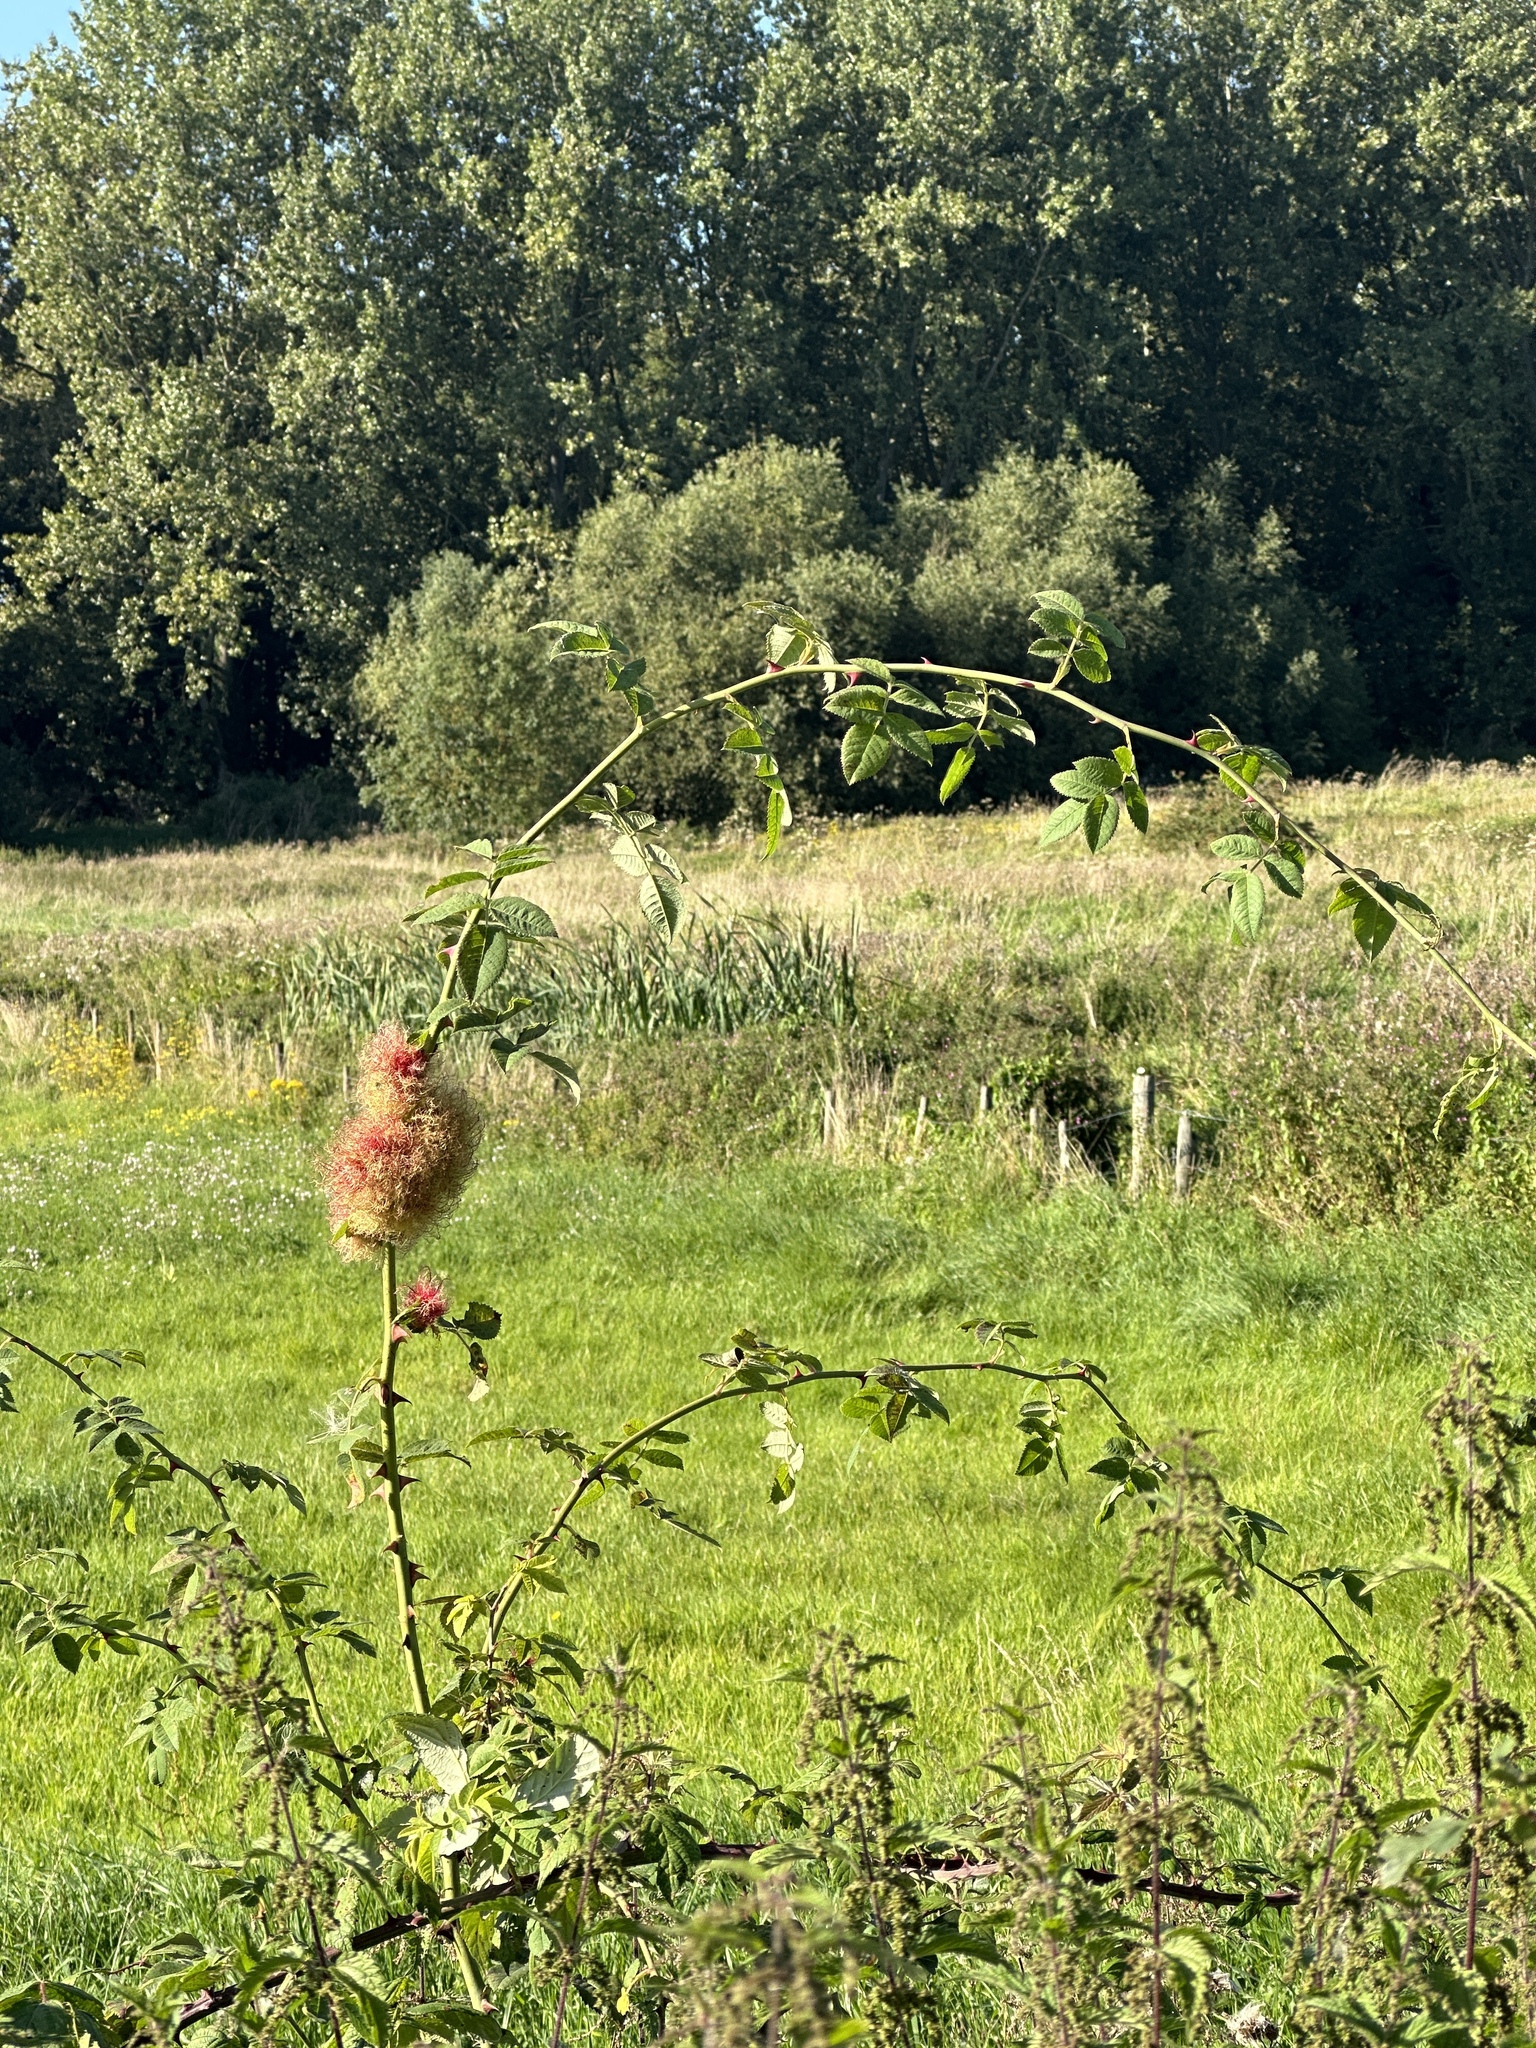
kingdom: Animalia
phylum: Arthropoda
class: Insecta
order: Hymenoptera
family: Cynipidae
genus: Diplolepis
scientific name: Diplolepis rosae
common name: Bedeguar gall
